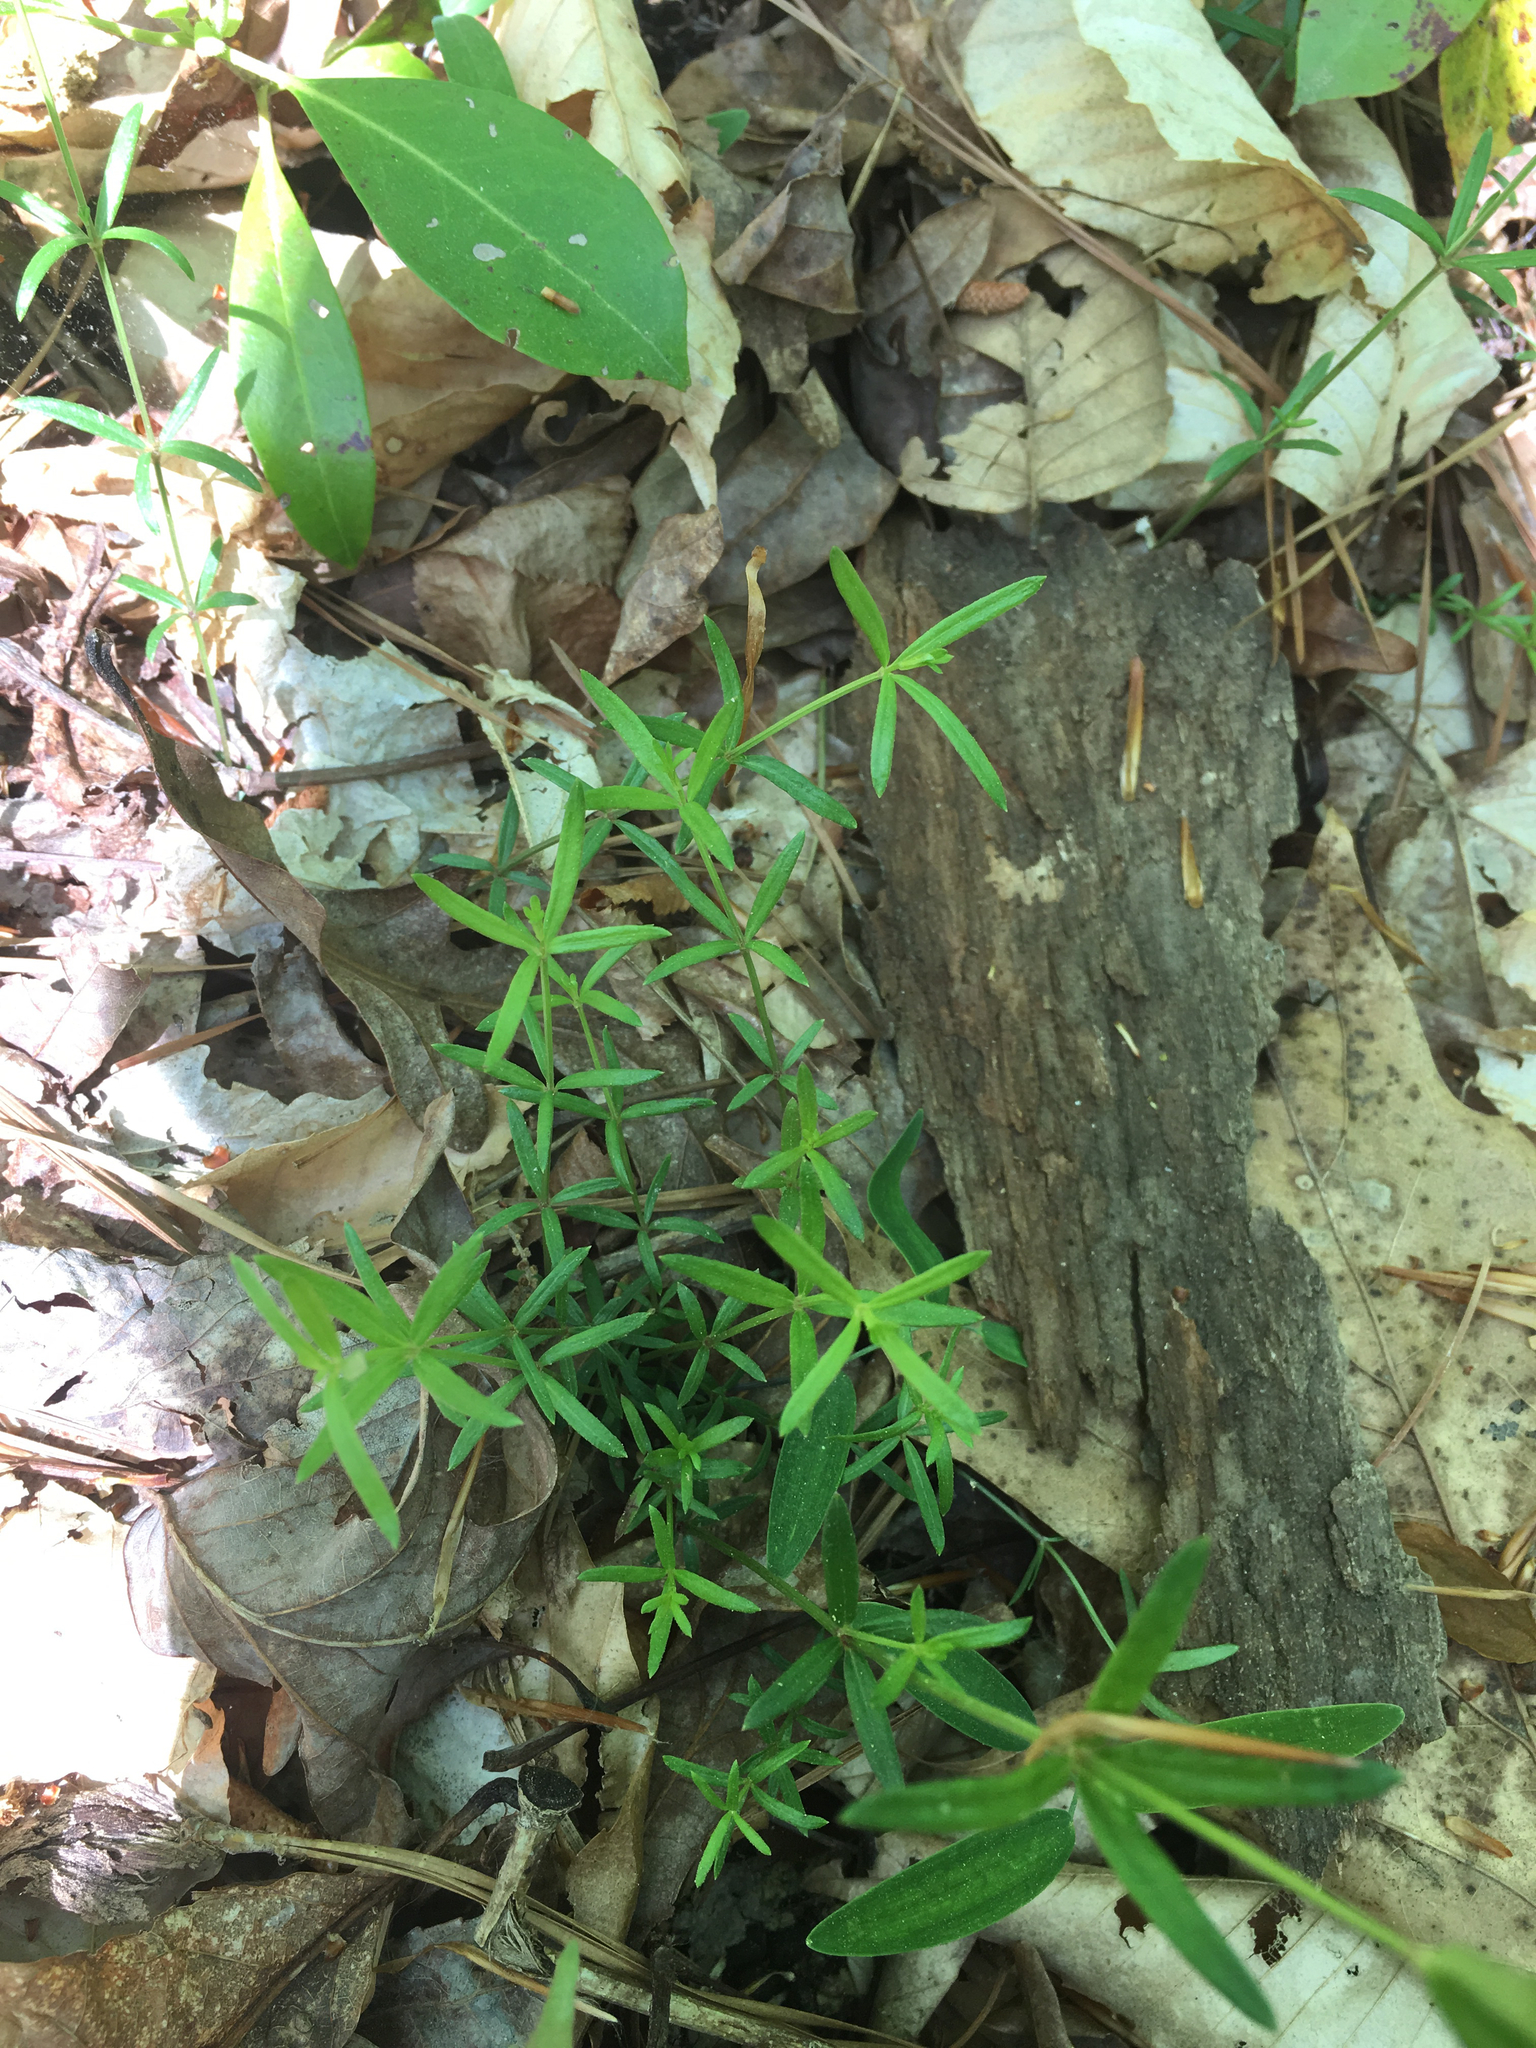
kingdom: Plantae
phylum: Tracheophyta
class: Magnoliopsida
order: Gentianales
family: Rubiaceae
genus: Galium
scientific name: Galium uniflorum
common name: One-flower bedstraw
